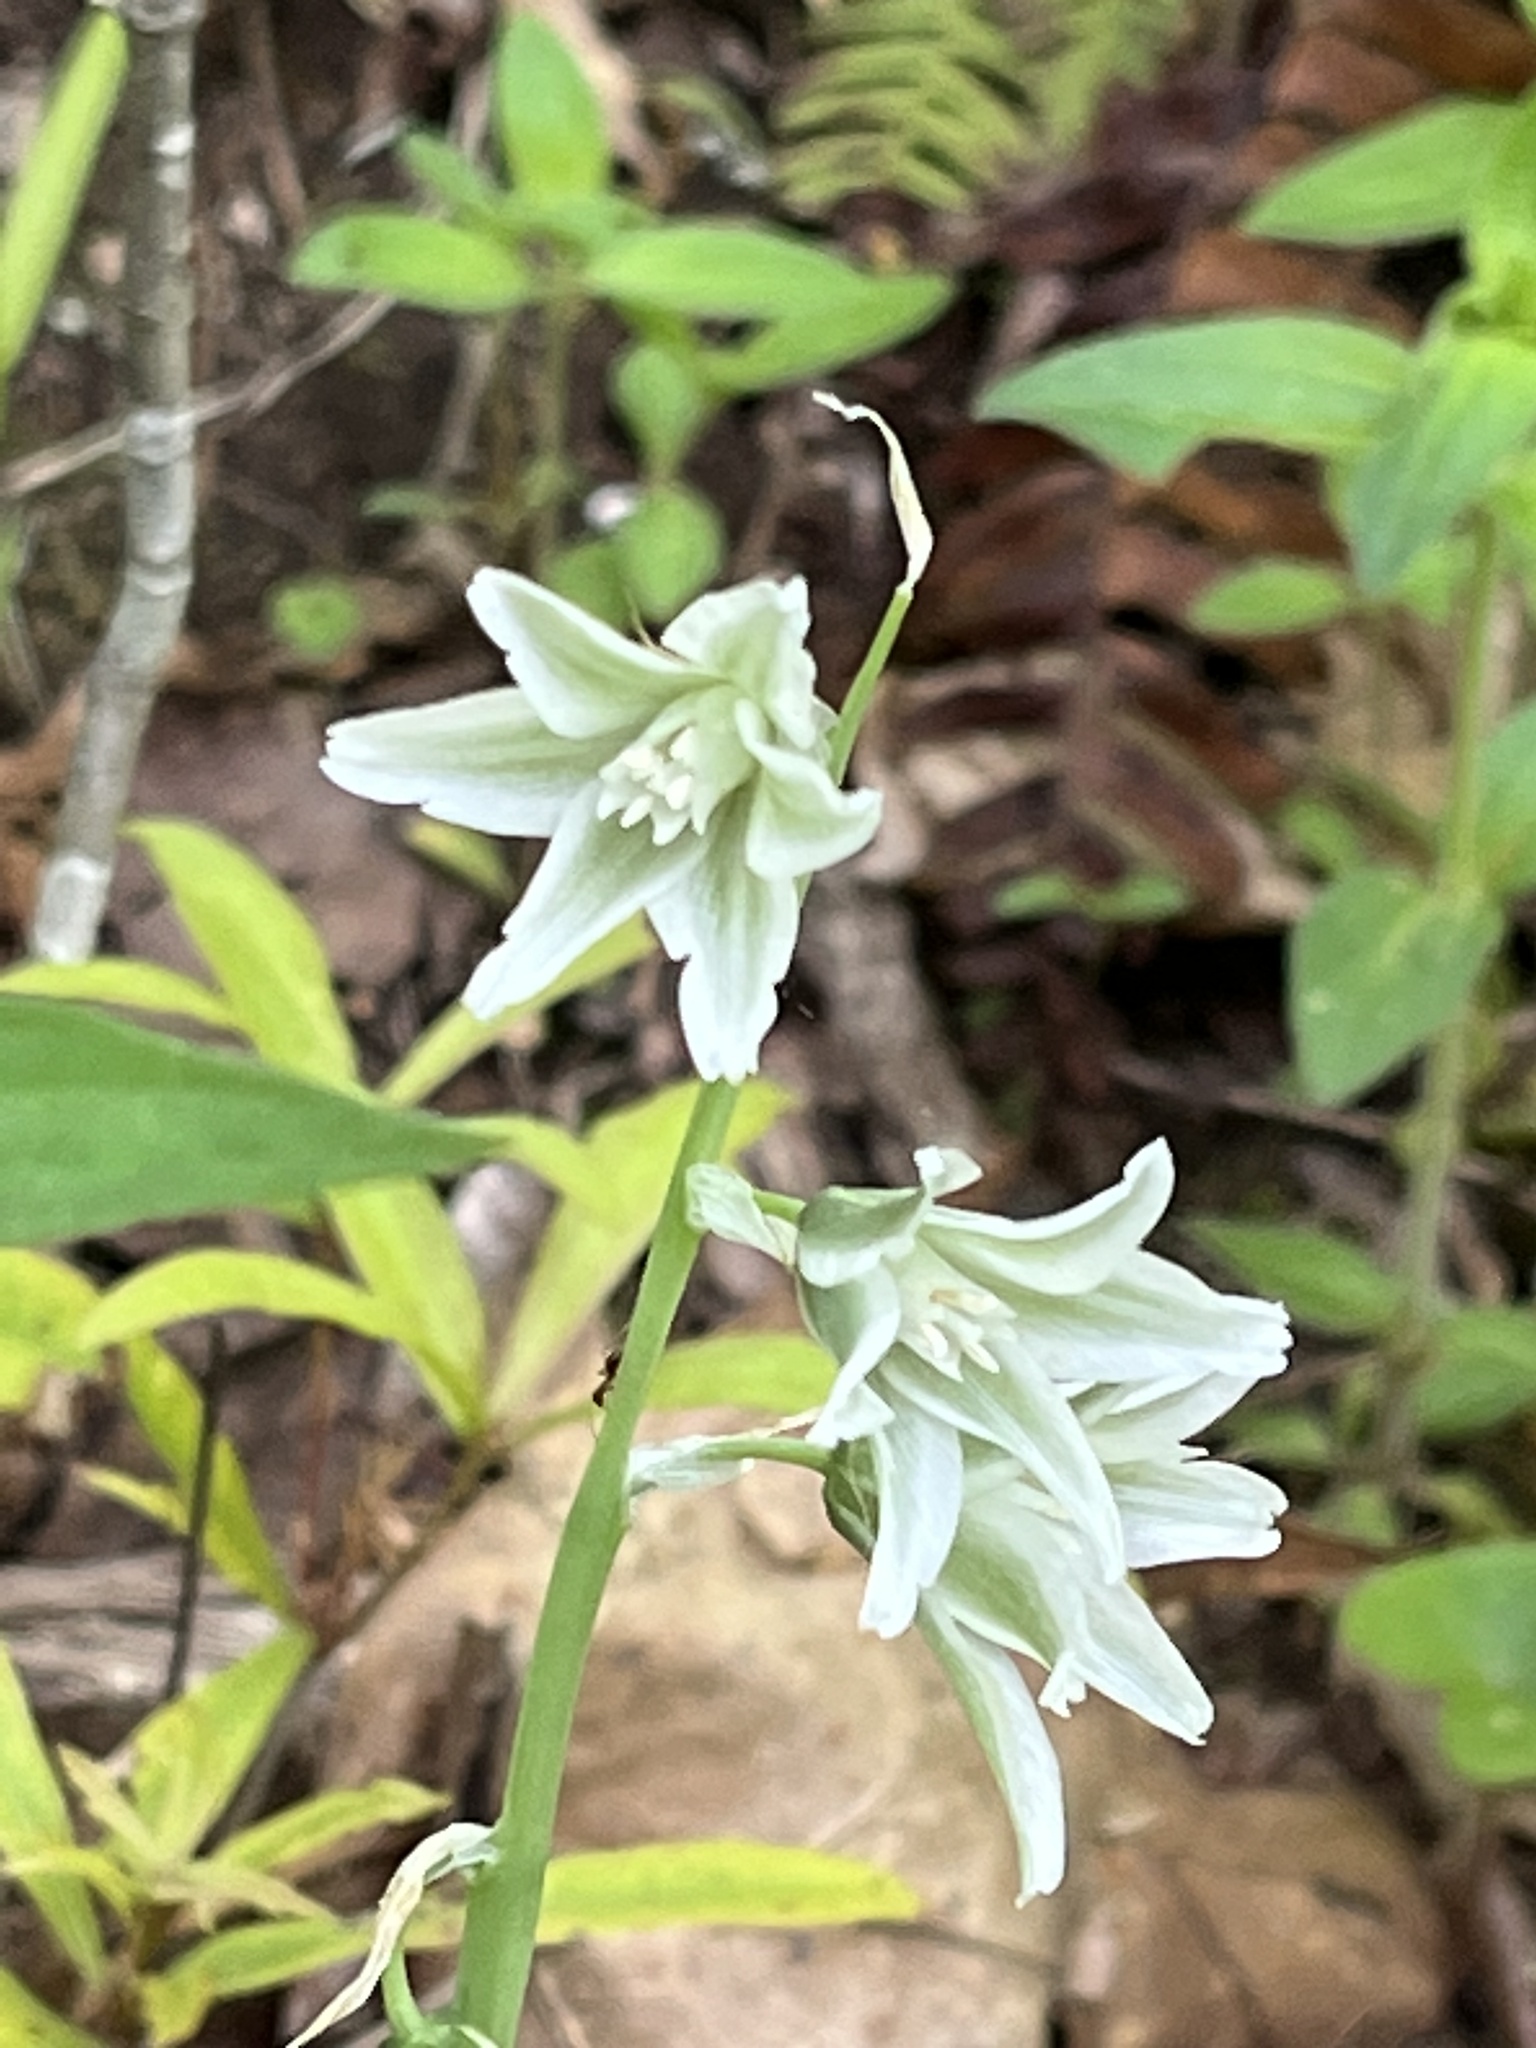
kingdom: Plantae
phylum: Tracheophyta
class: Liliopsida
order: Asparagales
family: Asparagaceae
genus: Ornithogalum
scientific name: Ornithogalum nutans
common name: Drooping star-of-bethlehem
